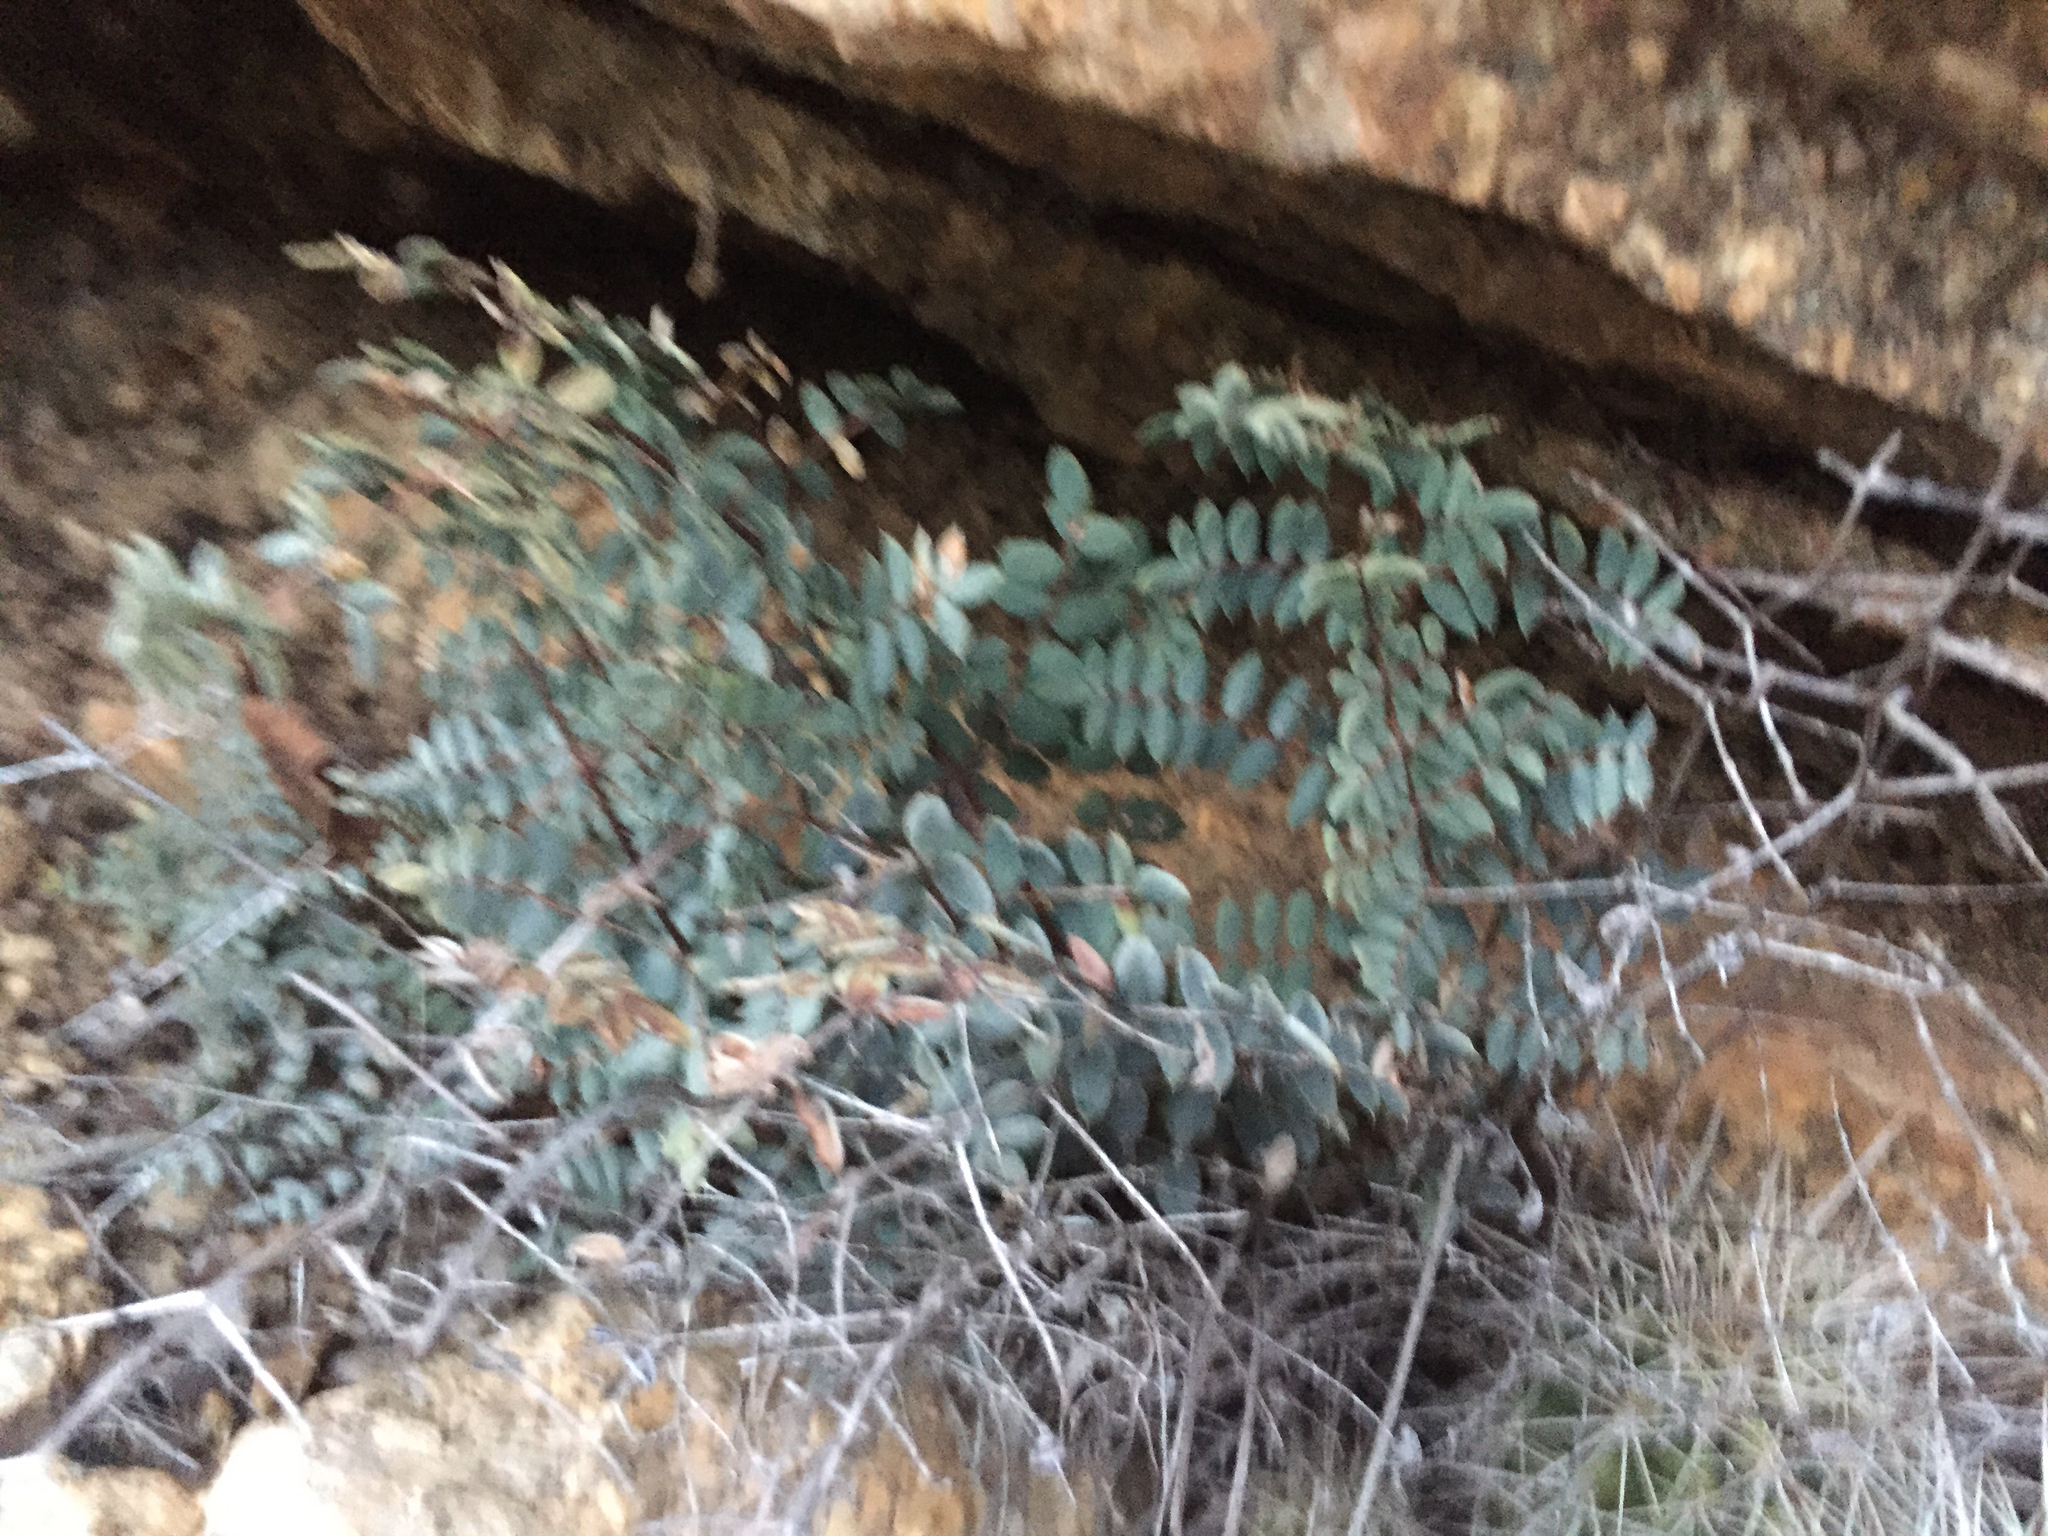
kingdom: Plantae
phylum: Tracheophyta
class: Polypodiopsida
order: Polypodiales
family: Pteridaceae
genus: Pellaea
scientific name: Pellaea truncata
